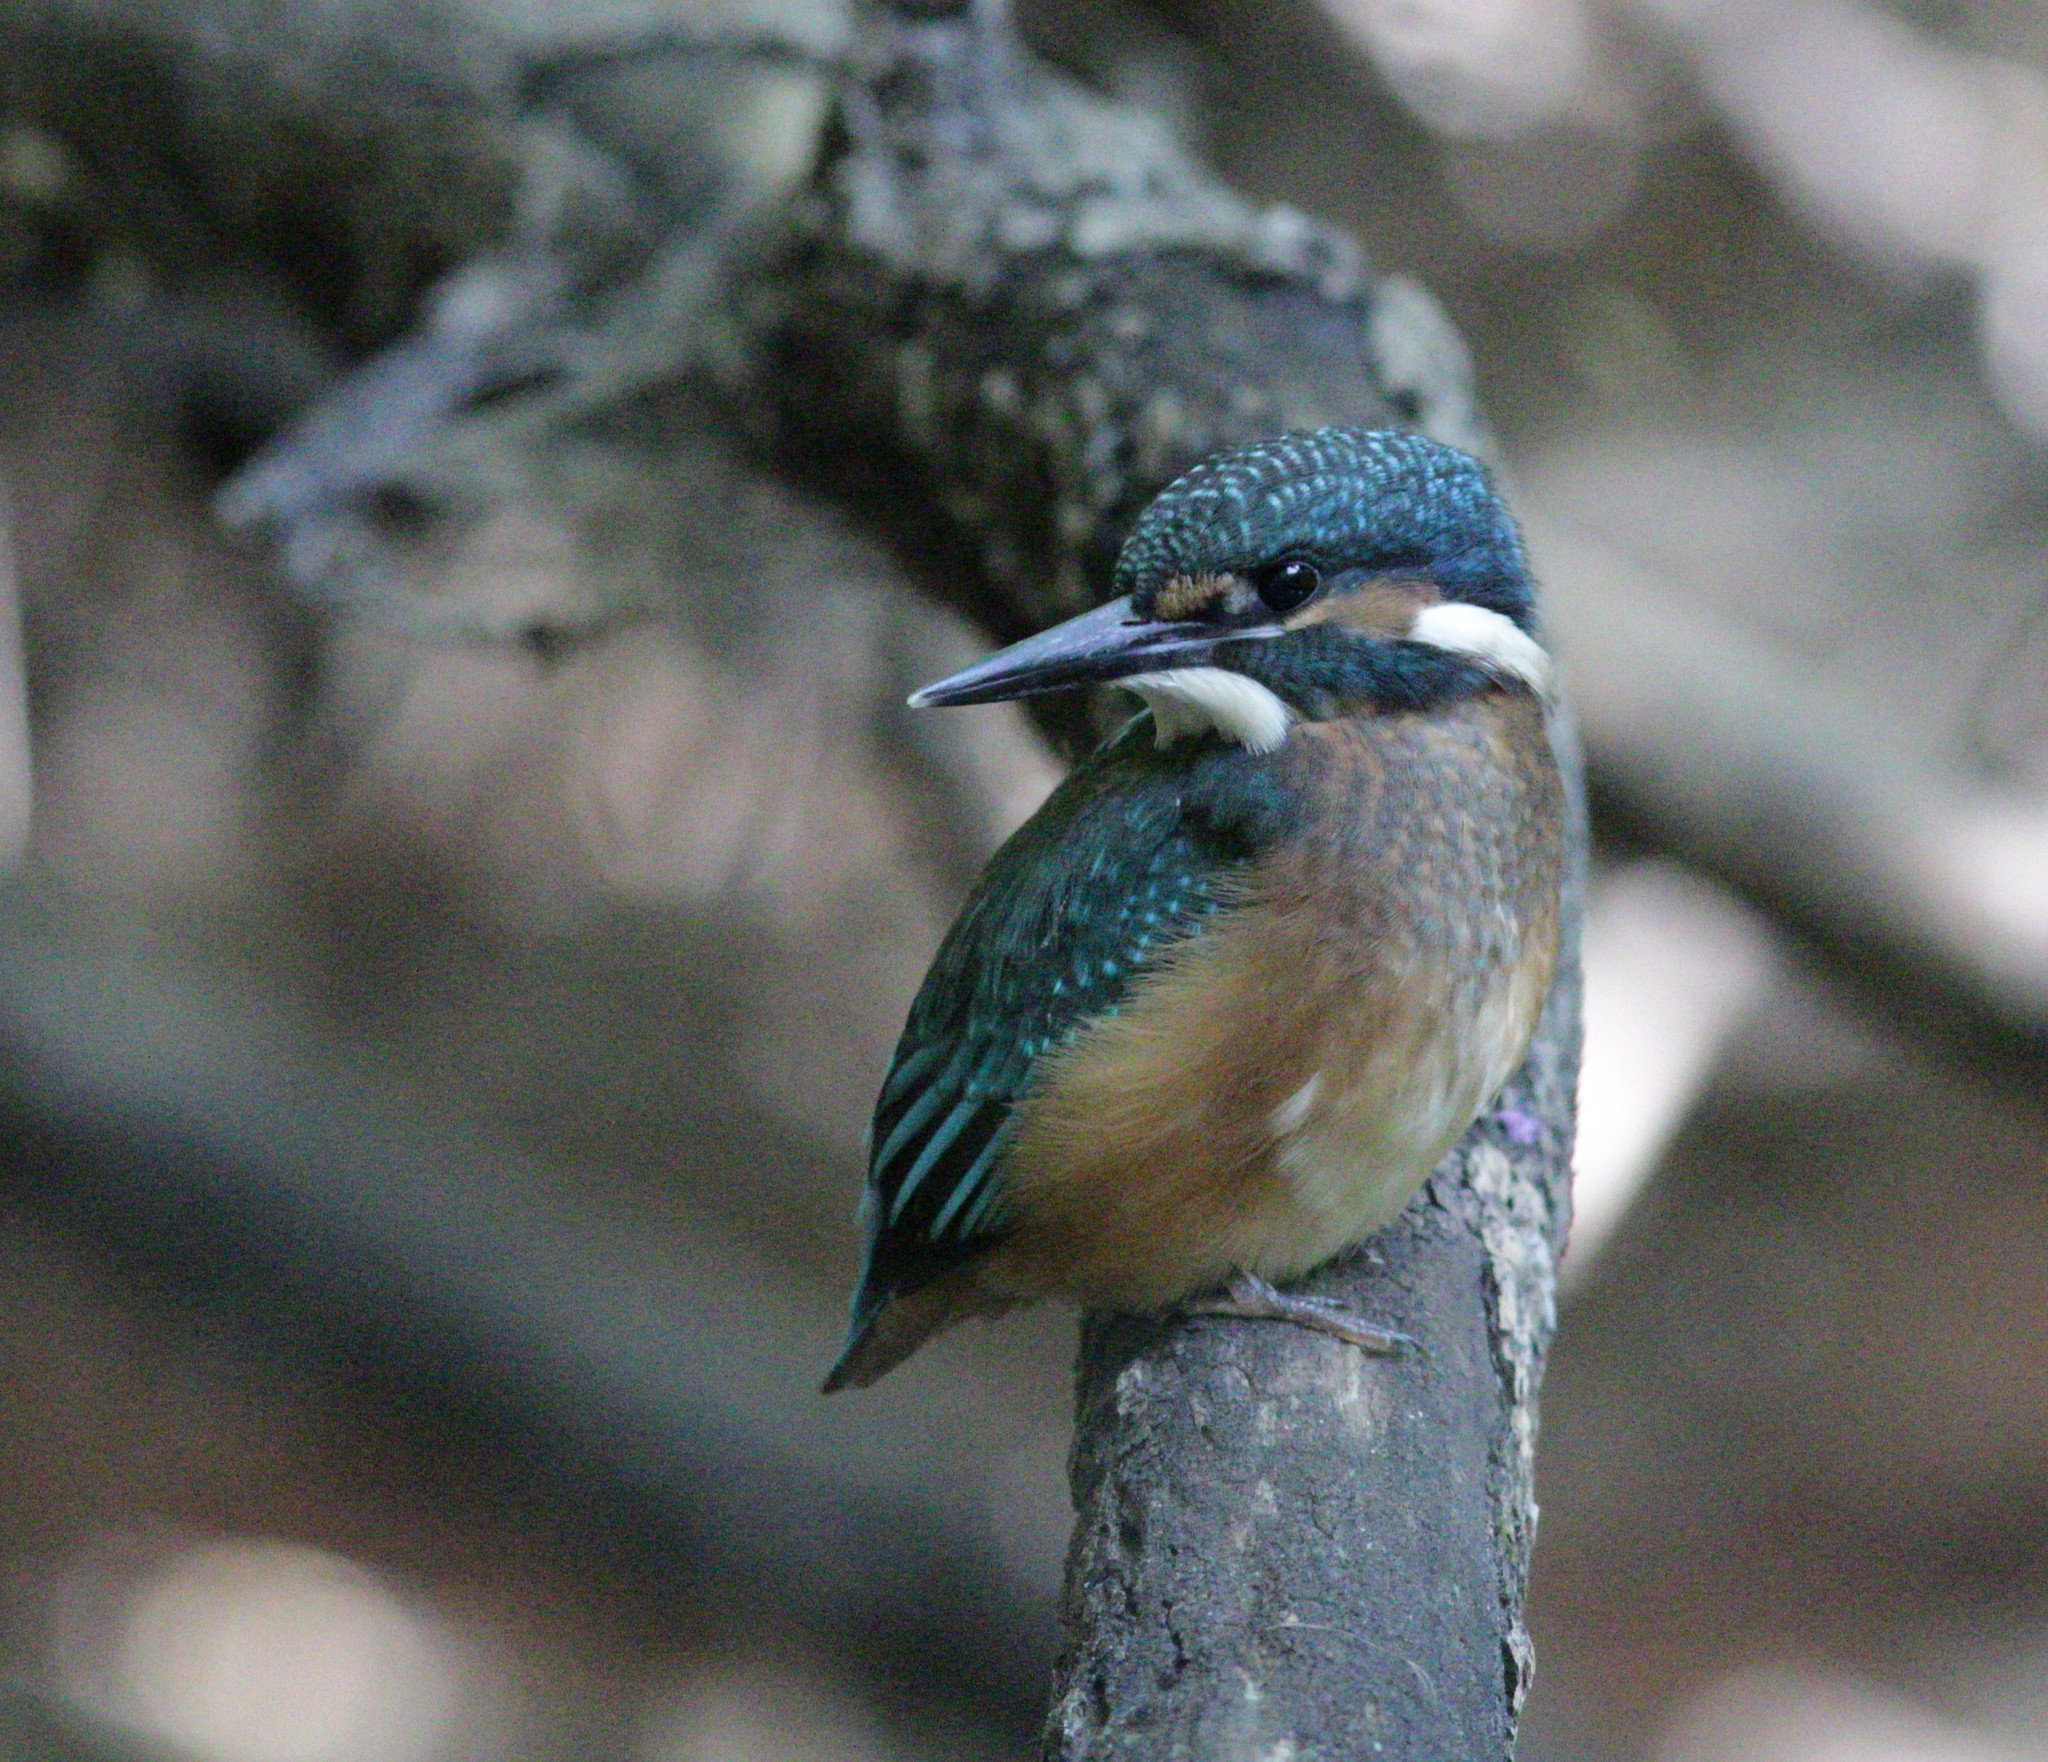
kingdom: Animalia
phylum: Chordata
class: Aves
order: Coraciiformes
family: Alcedinidae
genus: Alcedo
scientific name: Alcedo atthis
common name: Common kingfisher
